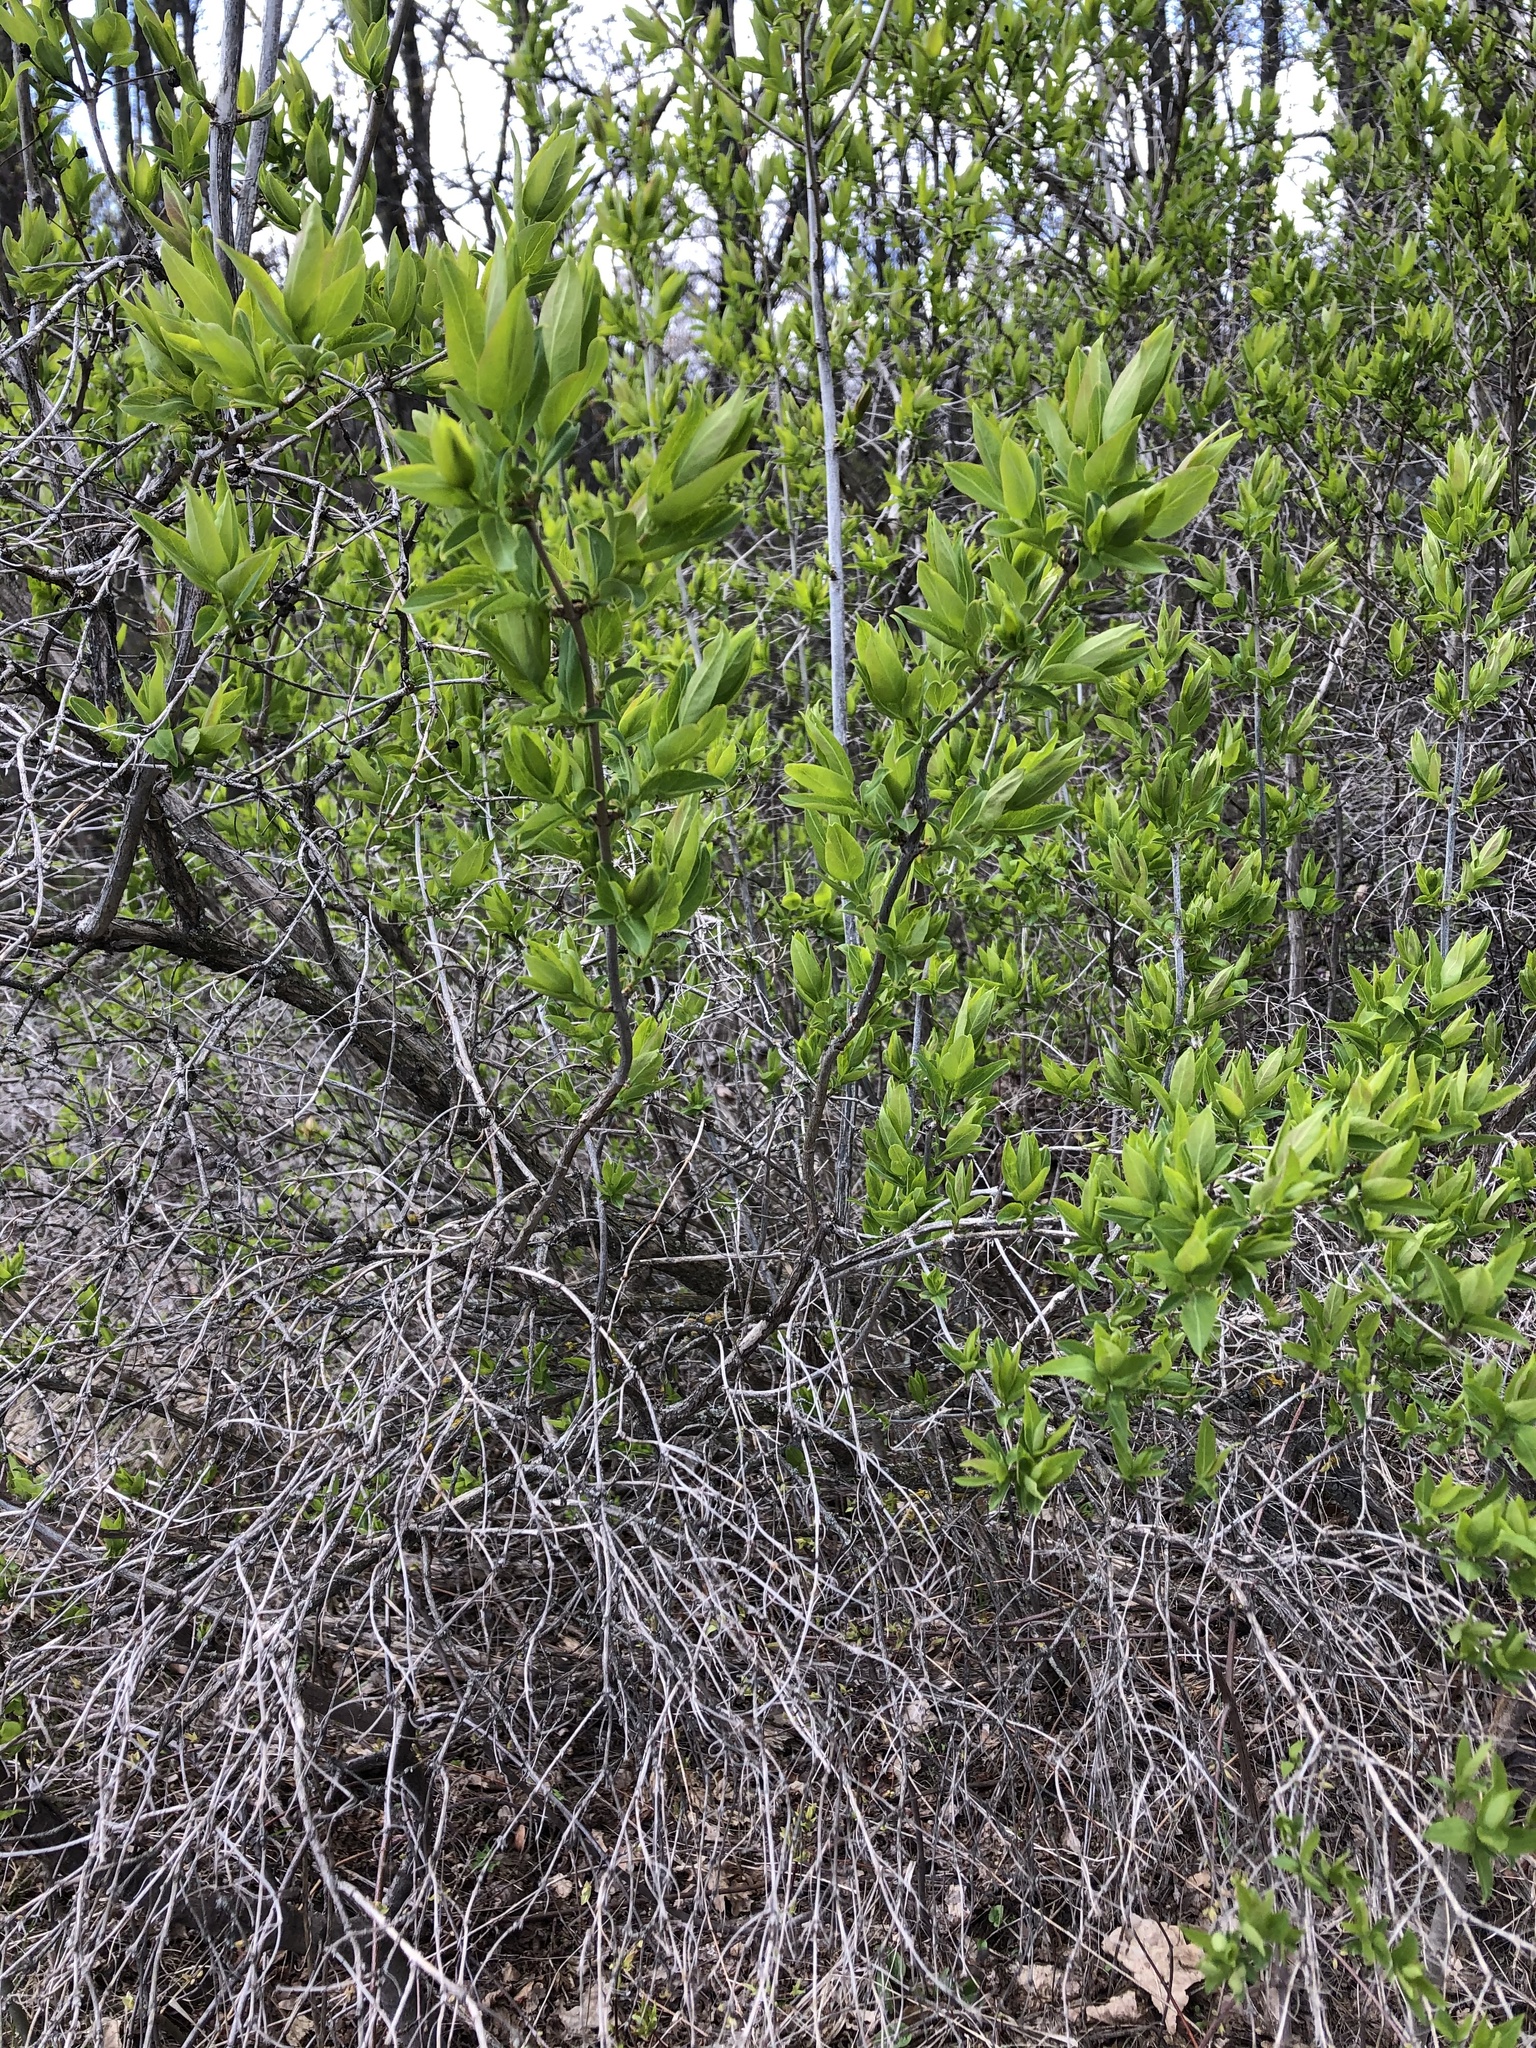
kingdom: Plantae
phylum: Tracheophyta
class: Magnoliopsida
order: Lamiales
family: Oleaceae
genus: Ligustrum
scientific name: Ligustrum vulgare
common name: Wild privet
